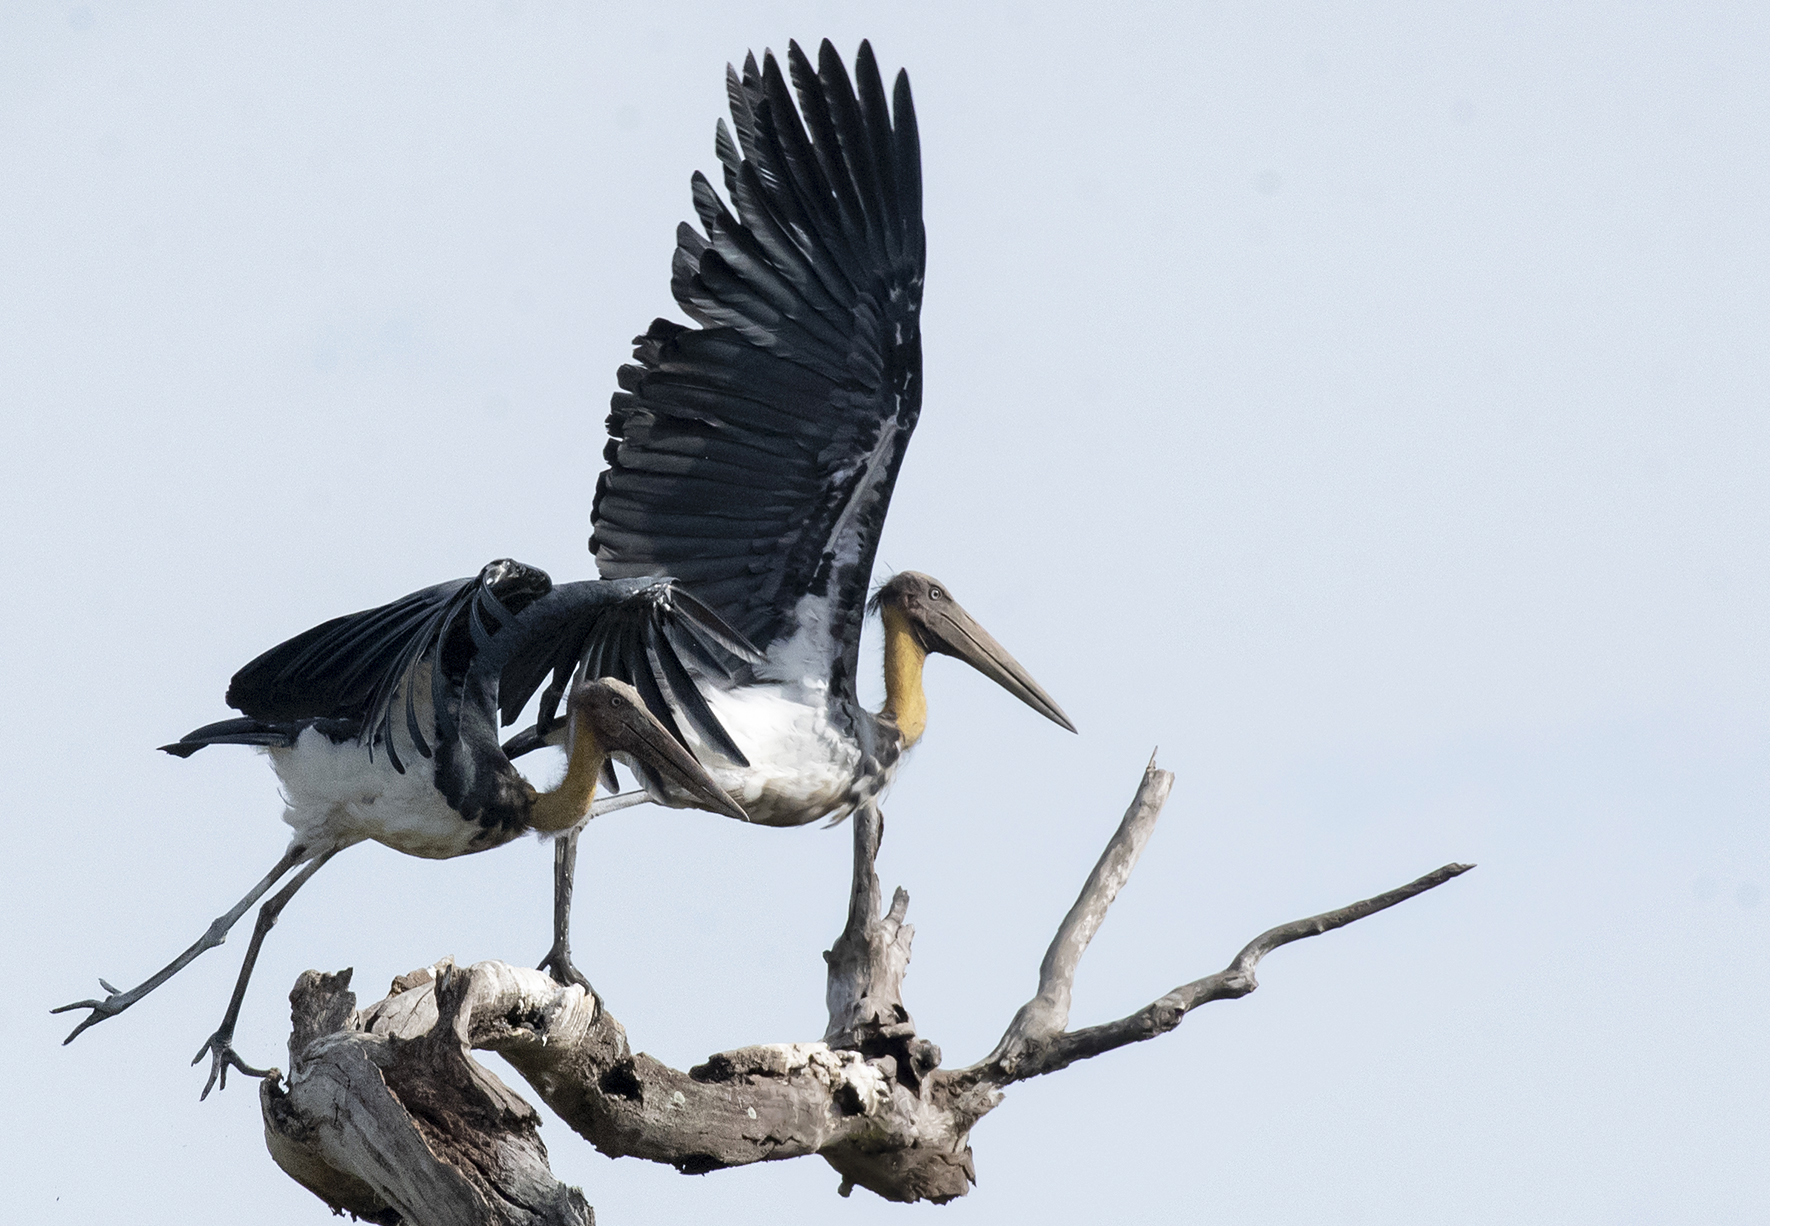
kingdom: Animalia
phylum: Chordata
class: Aves
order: Ciconiiformes
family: Ciconiidae
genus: Leptoptilos
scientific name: Leptoptilos javanicus
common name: Lesser adjutant
